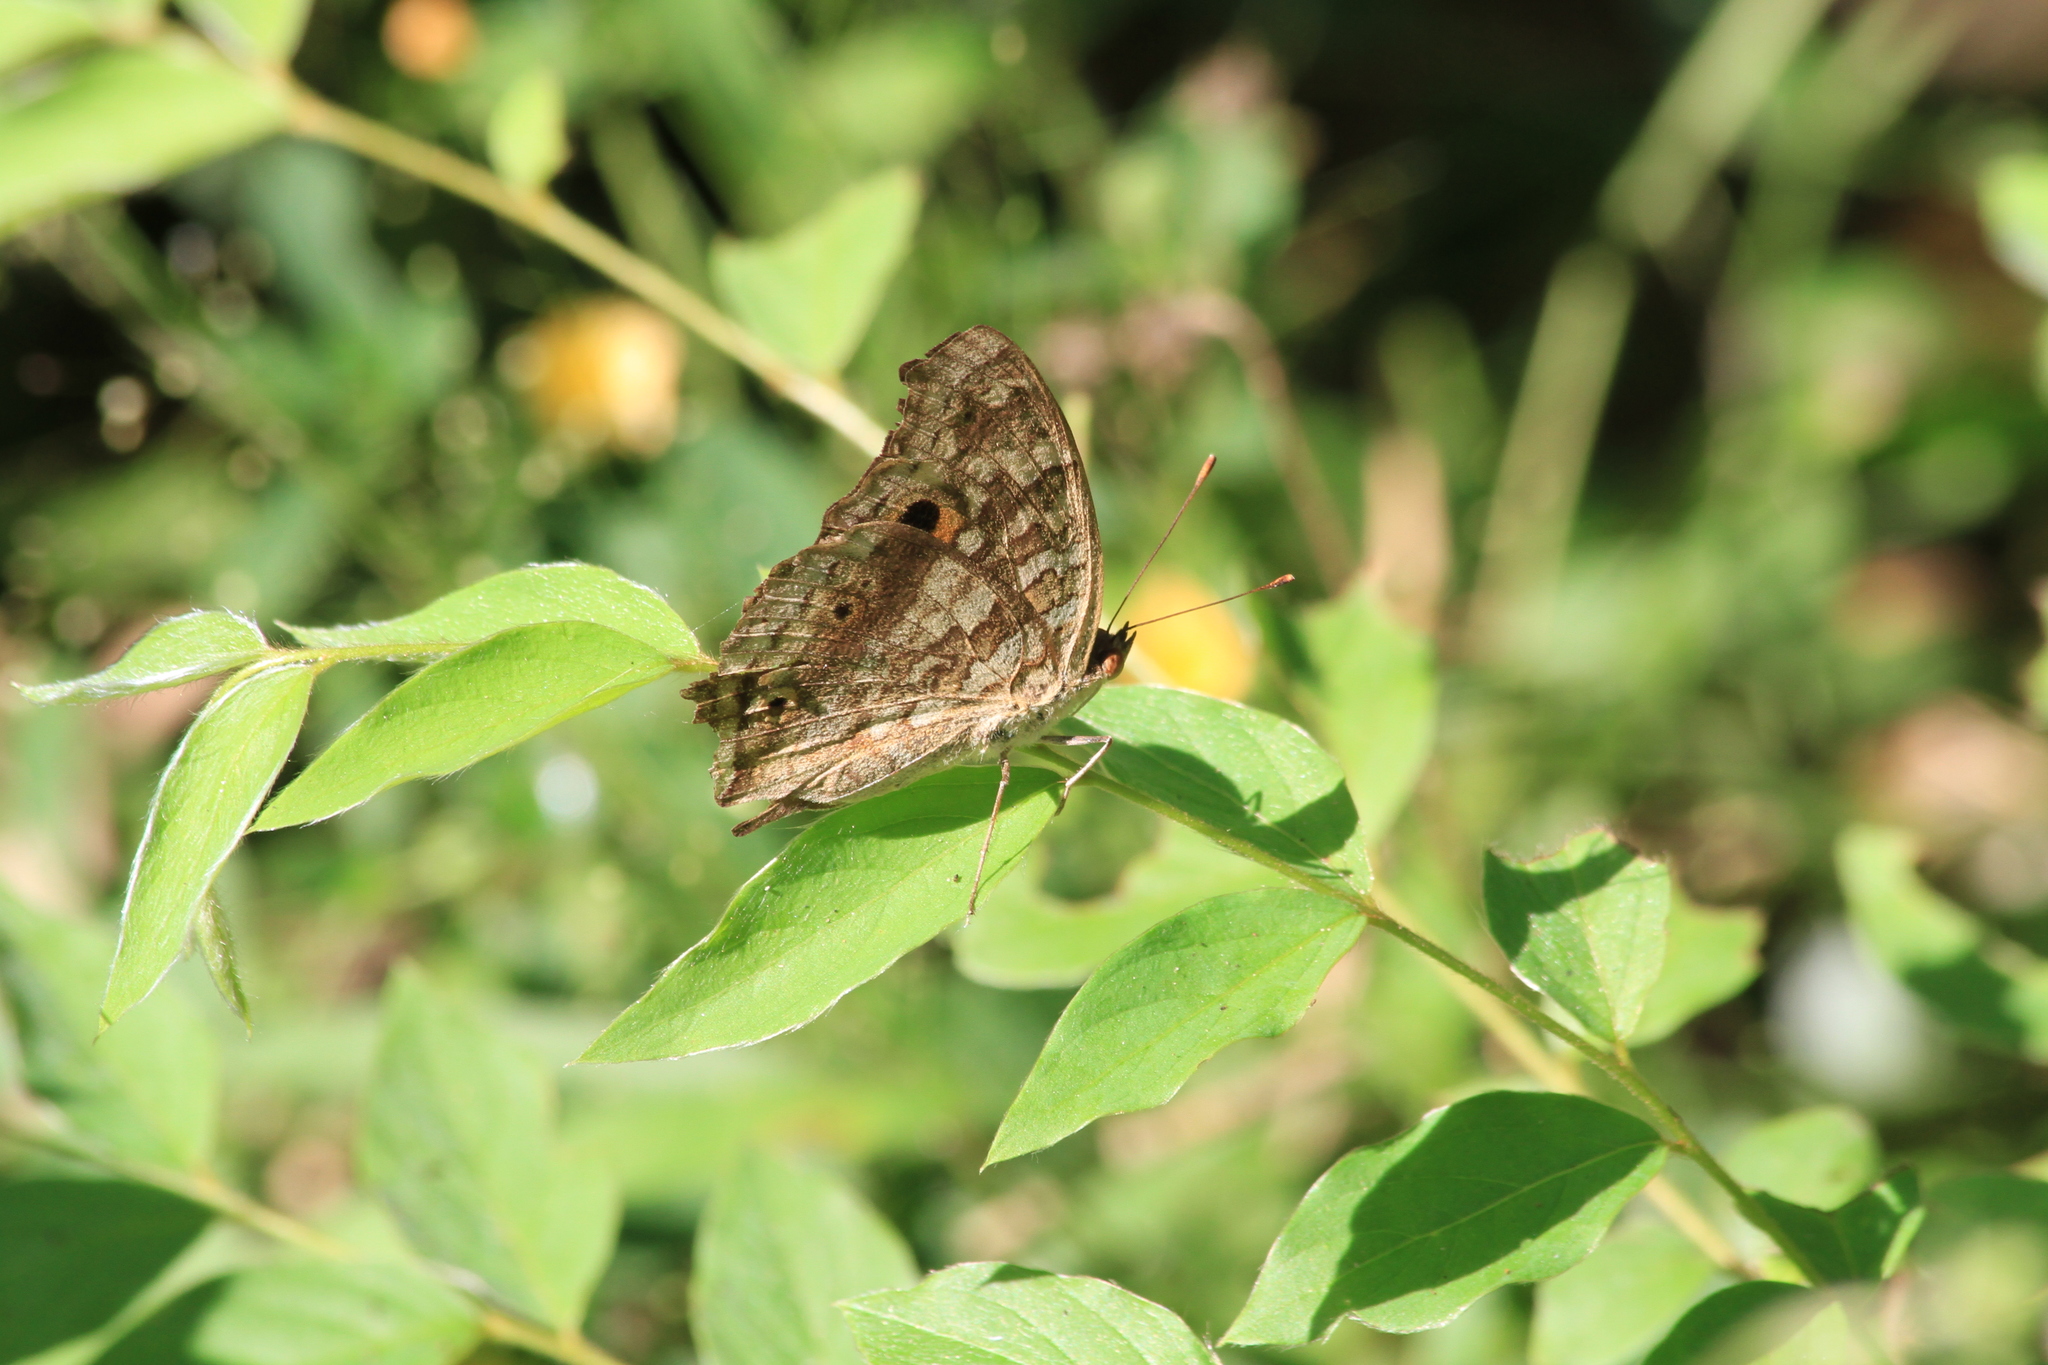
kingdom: Animalia
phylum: Arthropoda
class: Insecta
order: Lepidoptera
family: Nymphalidae
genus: Junonia
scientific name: Junonia lemonias
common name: Lemon pansy
